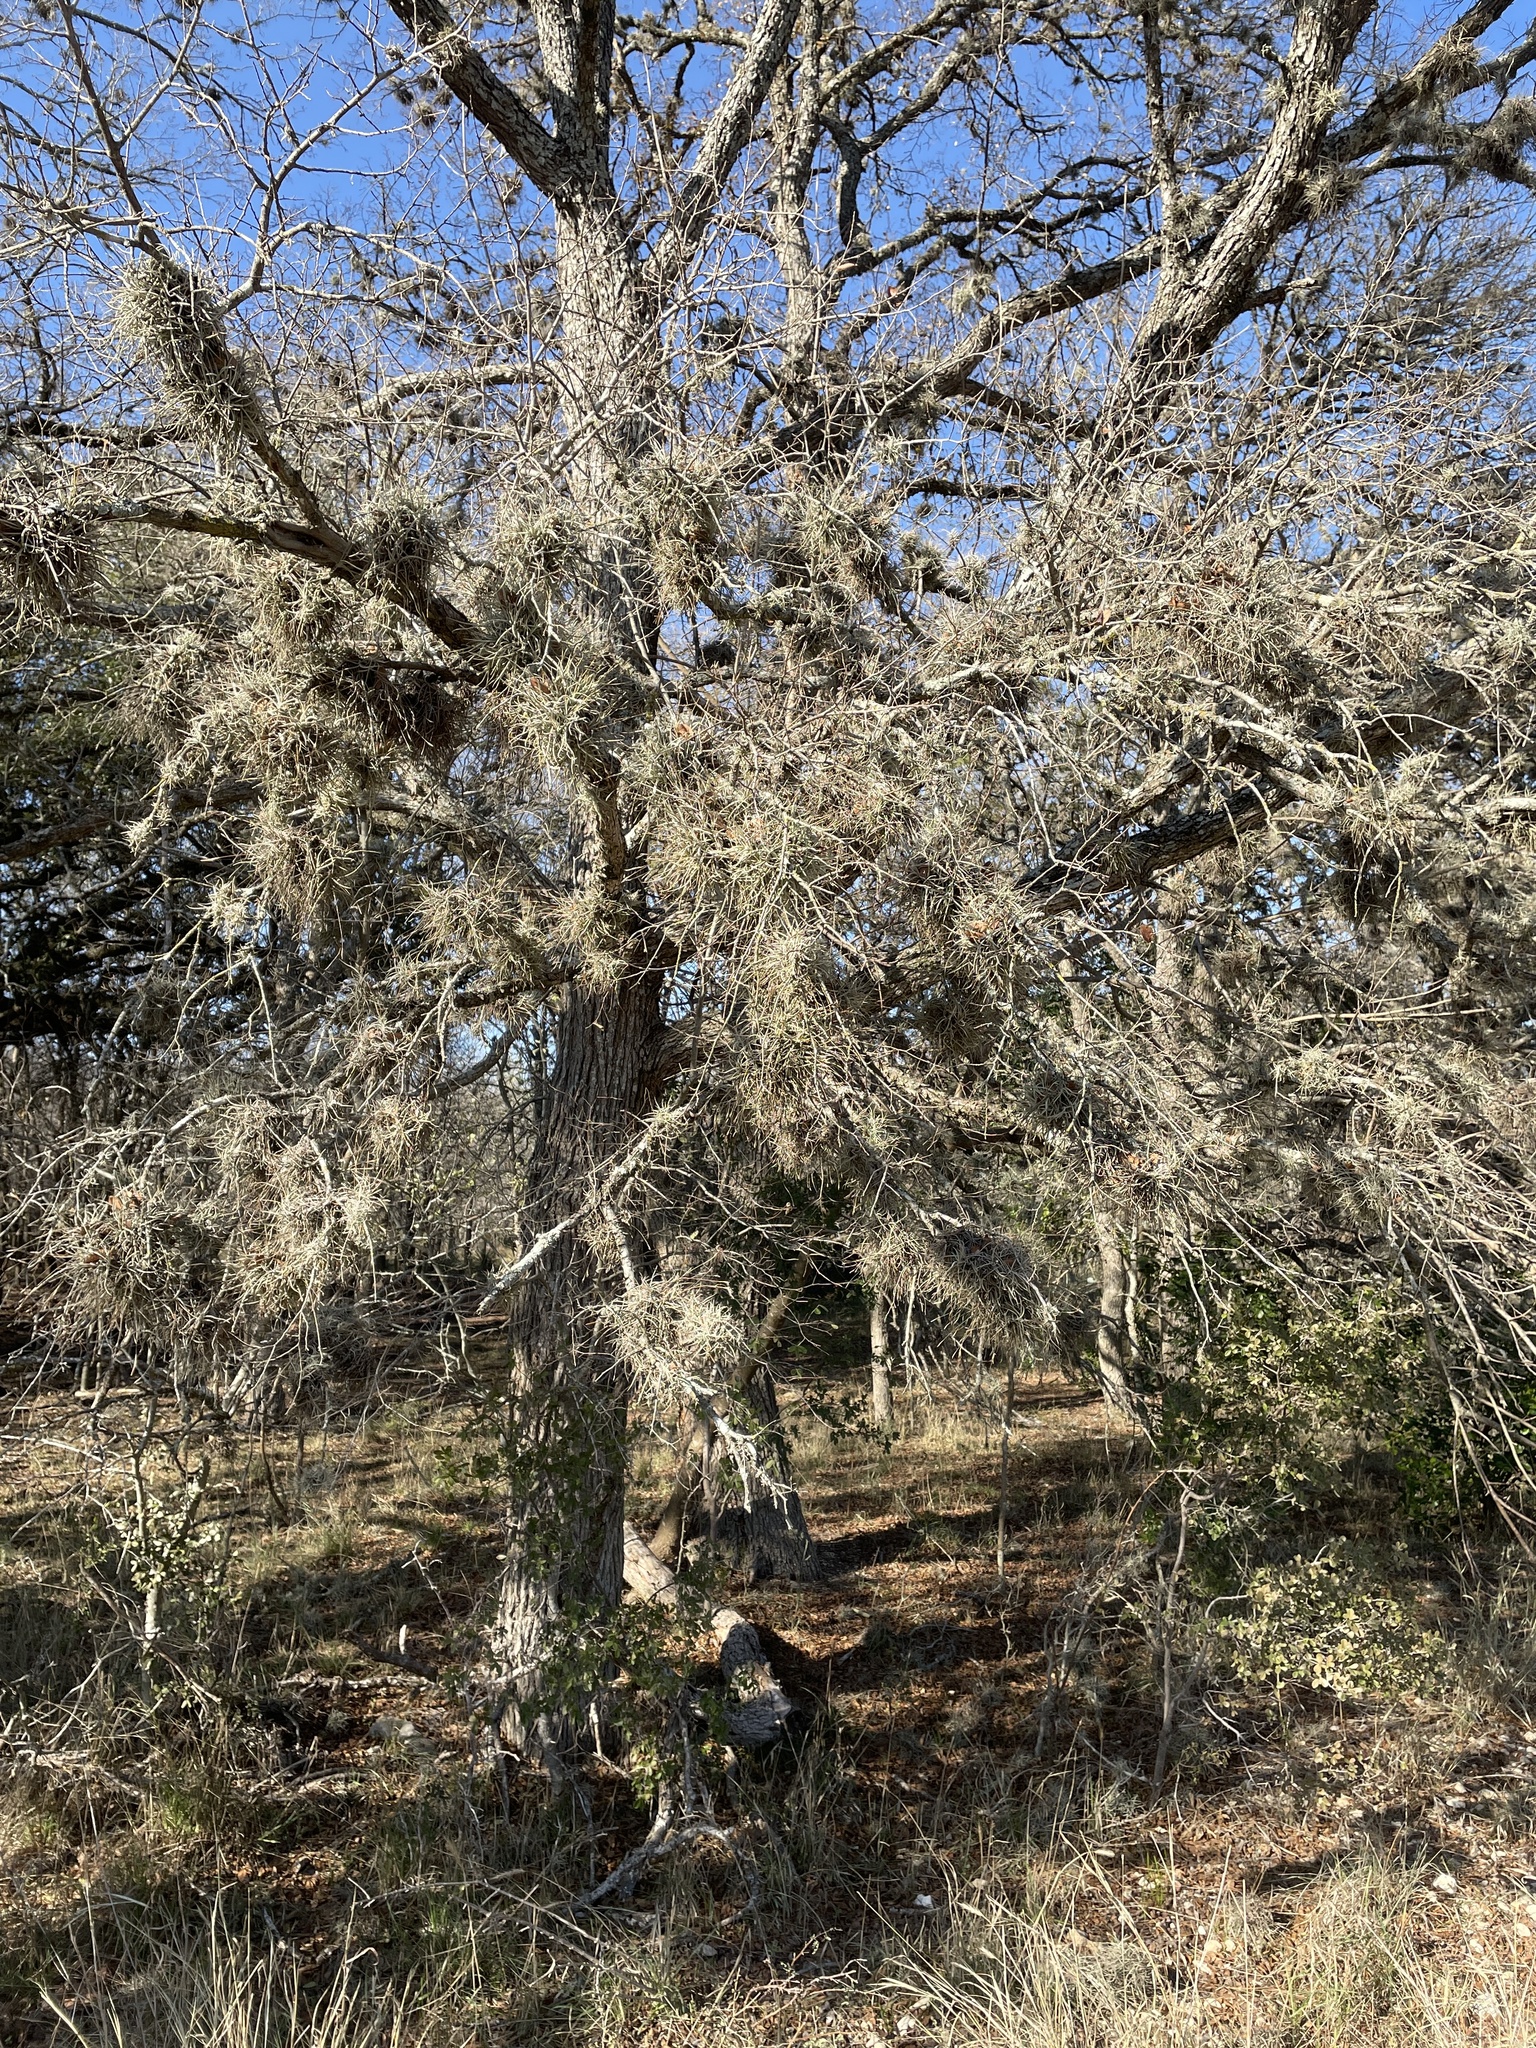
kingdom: Plantae
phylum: Tracheophyta
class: Liliopsida
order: Poales
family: Bromeliaceae
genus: Tillandsia
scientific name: Tillandsia recurvata
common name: Small ballmoss
